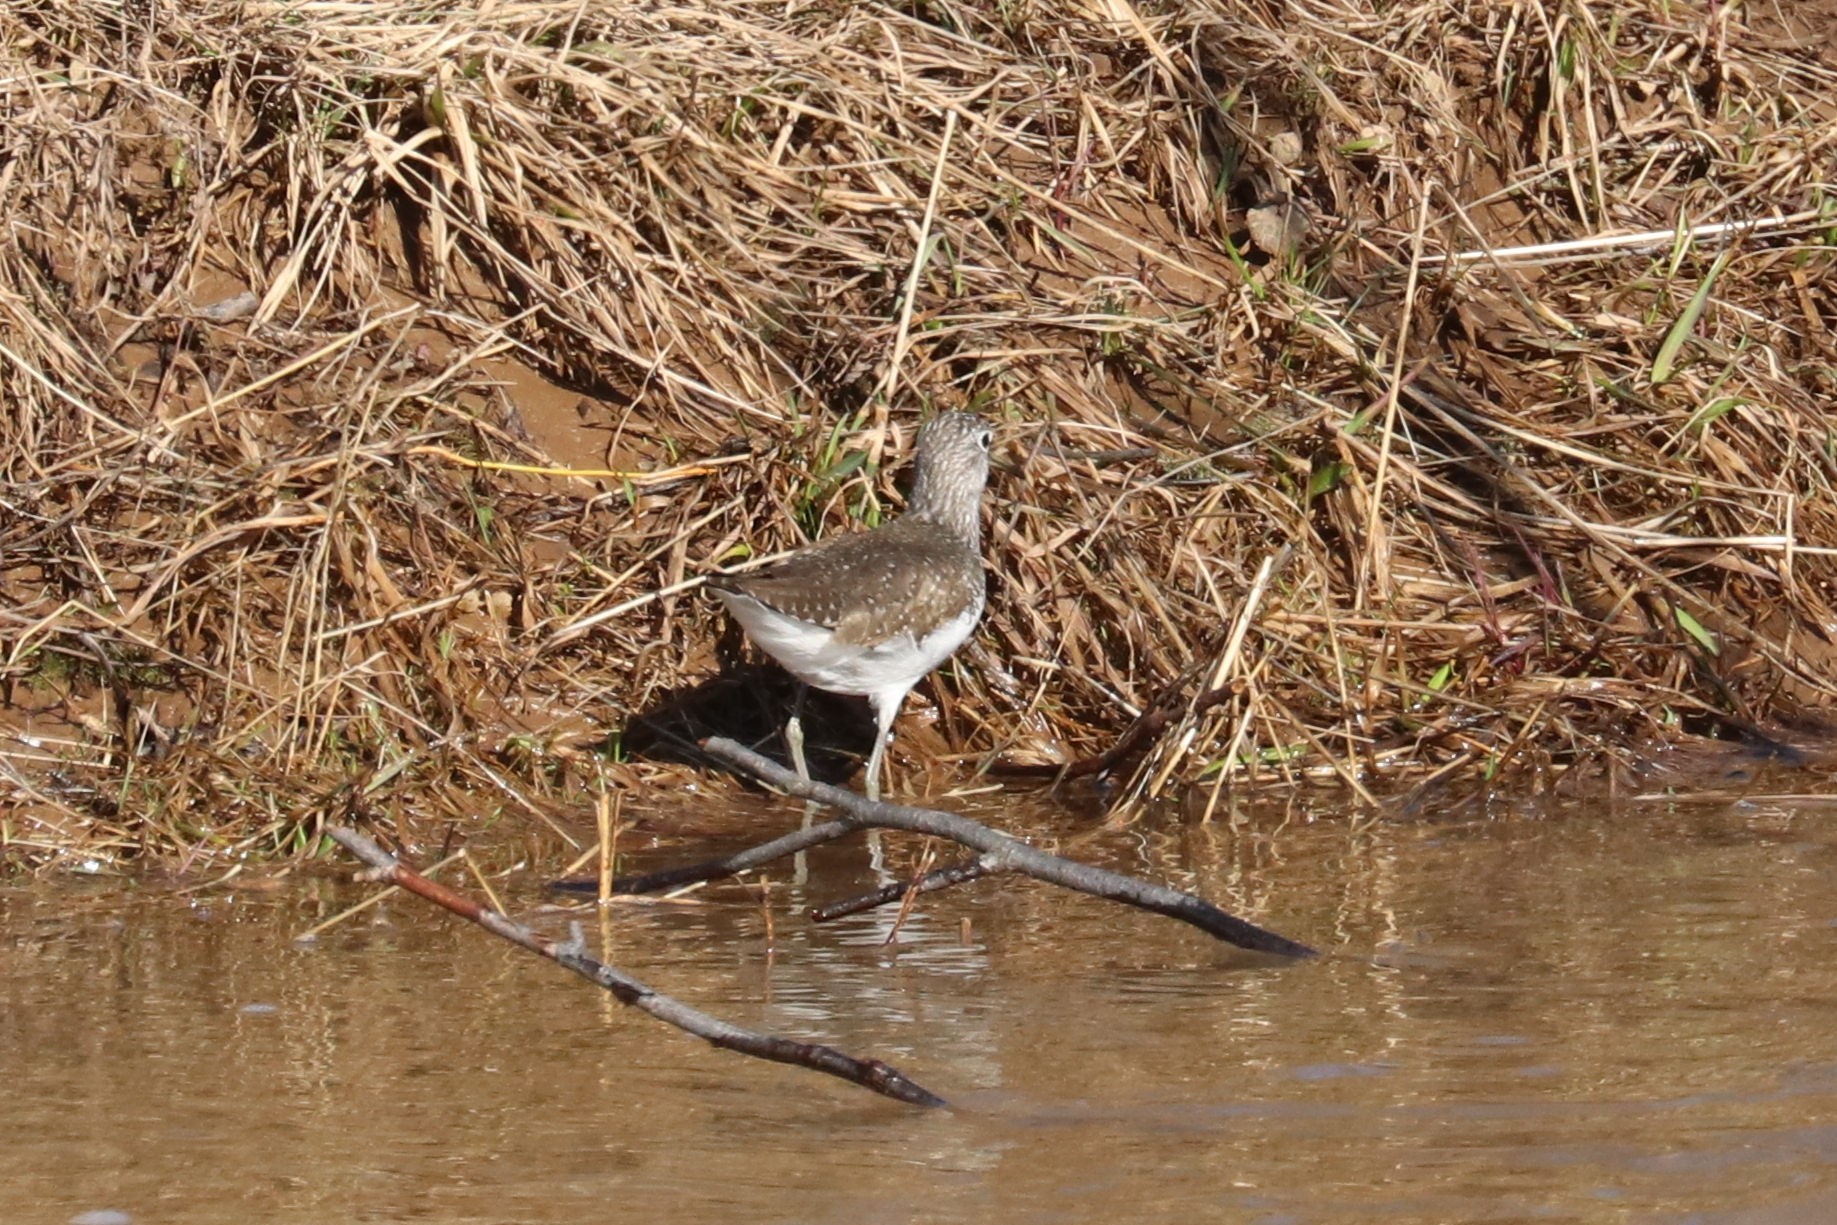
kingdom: Animalia
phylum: Chordata
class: Aves
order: Charadriiformes
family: Scolopacidae
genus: Tringa
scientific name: Tringa ochropus
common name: Green sandpiper
